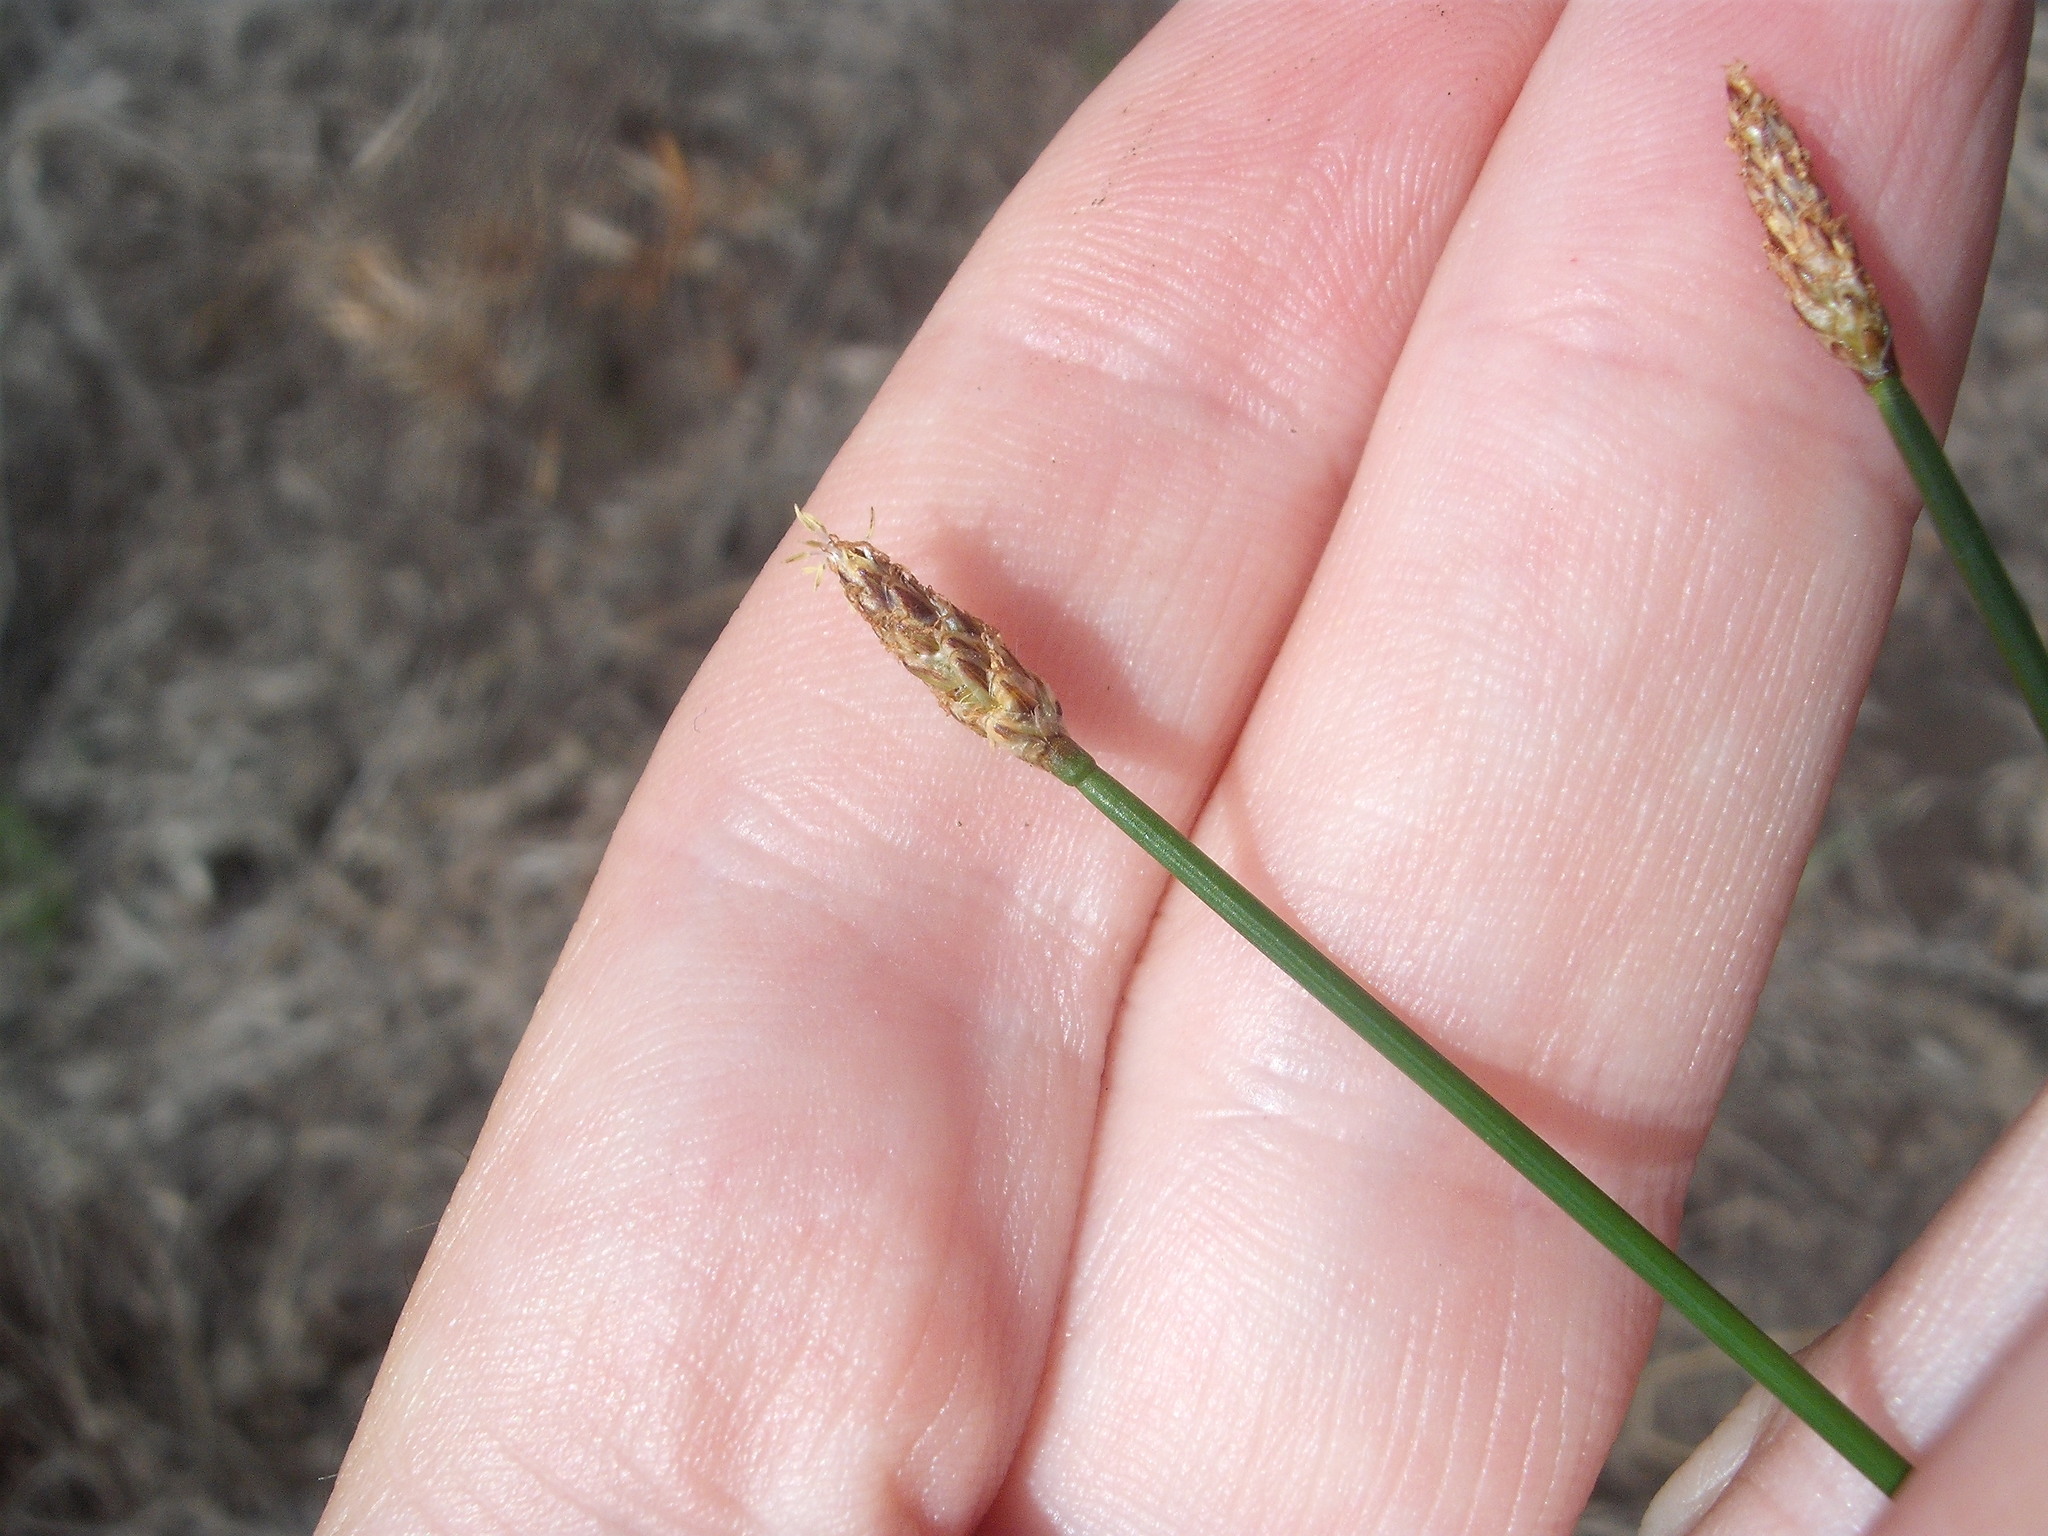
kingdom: Plantae
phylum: Tracheophyta
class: Liliopsida
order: Poales
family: Cyperaceae
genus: Eleocharis
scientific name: Eleocharis acuta
